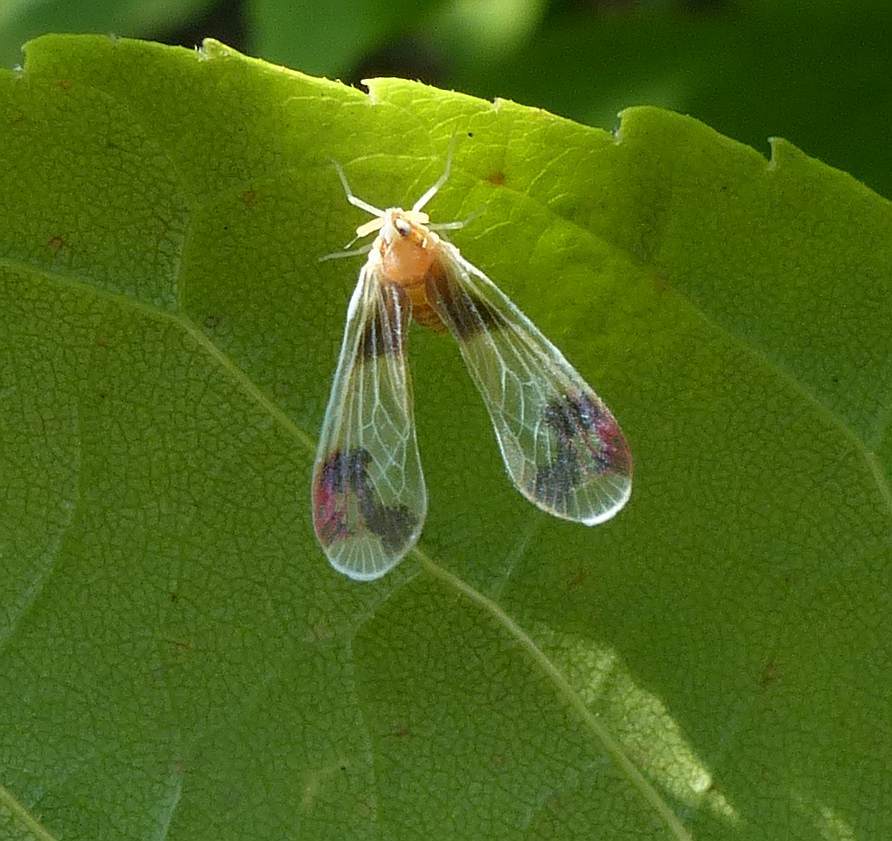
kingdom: Animalia
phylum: Arthropoda
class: Insecta
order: Hemiptera
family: Derbidae
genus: Anotia
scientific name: Anotia uhleri
